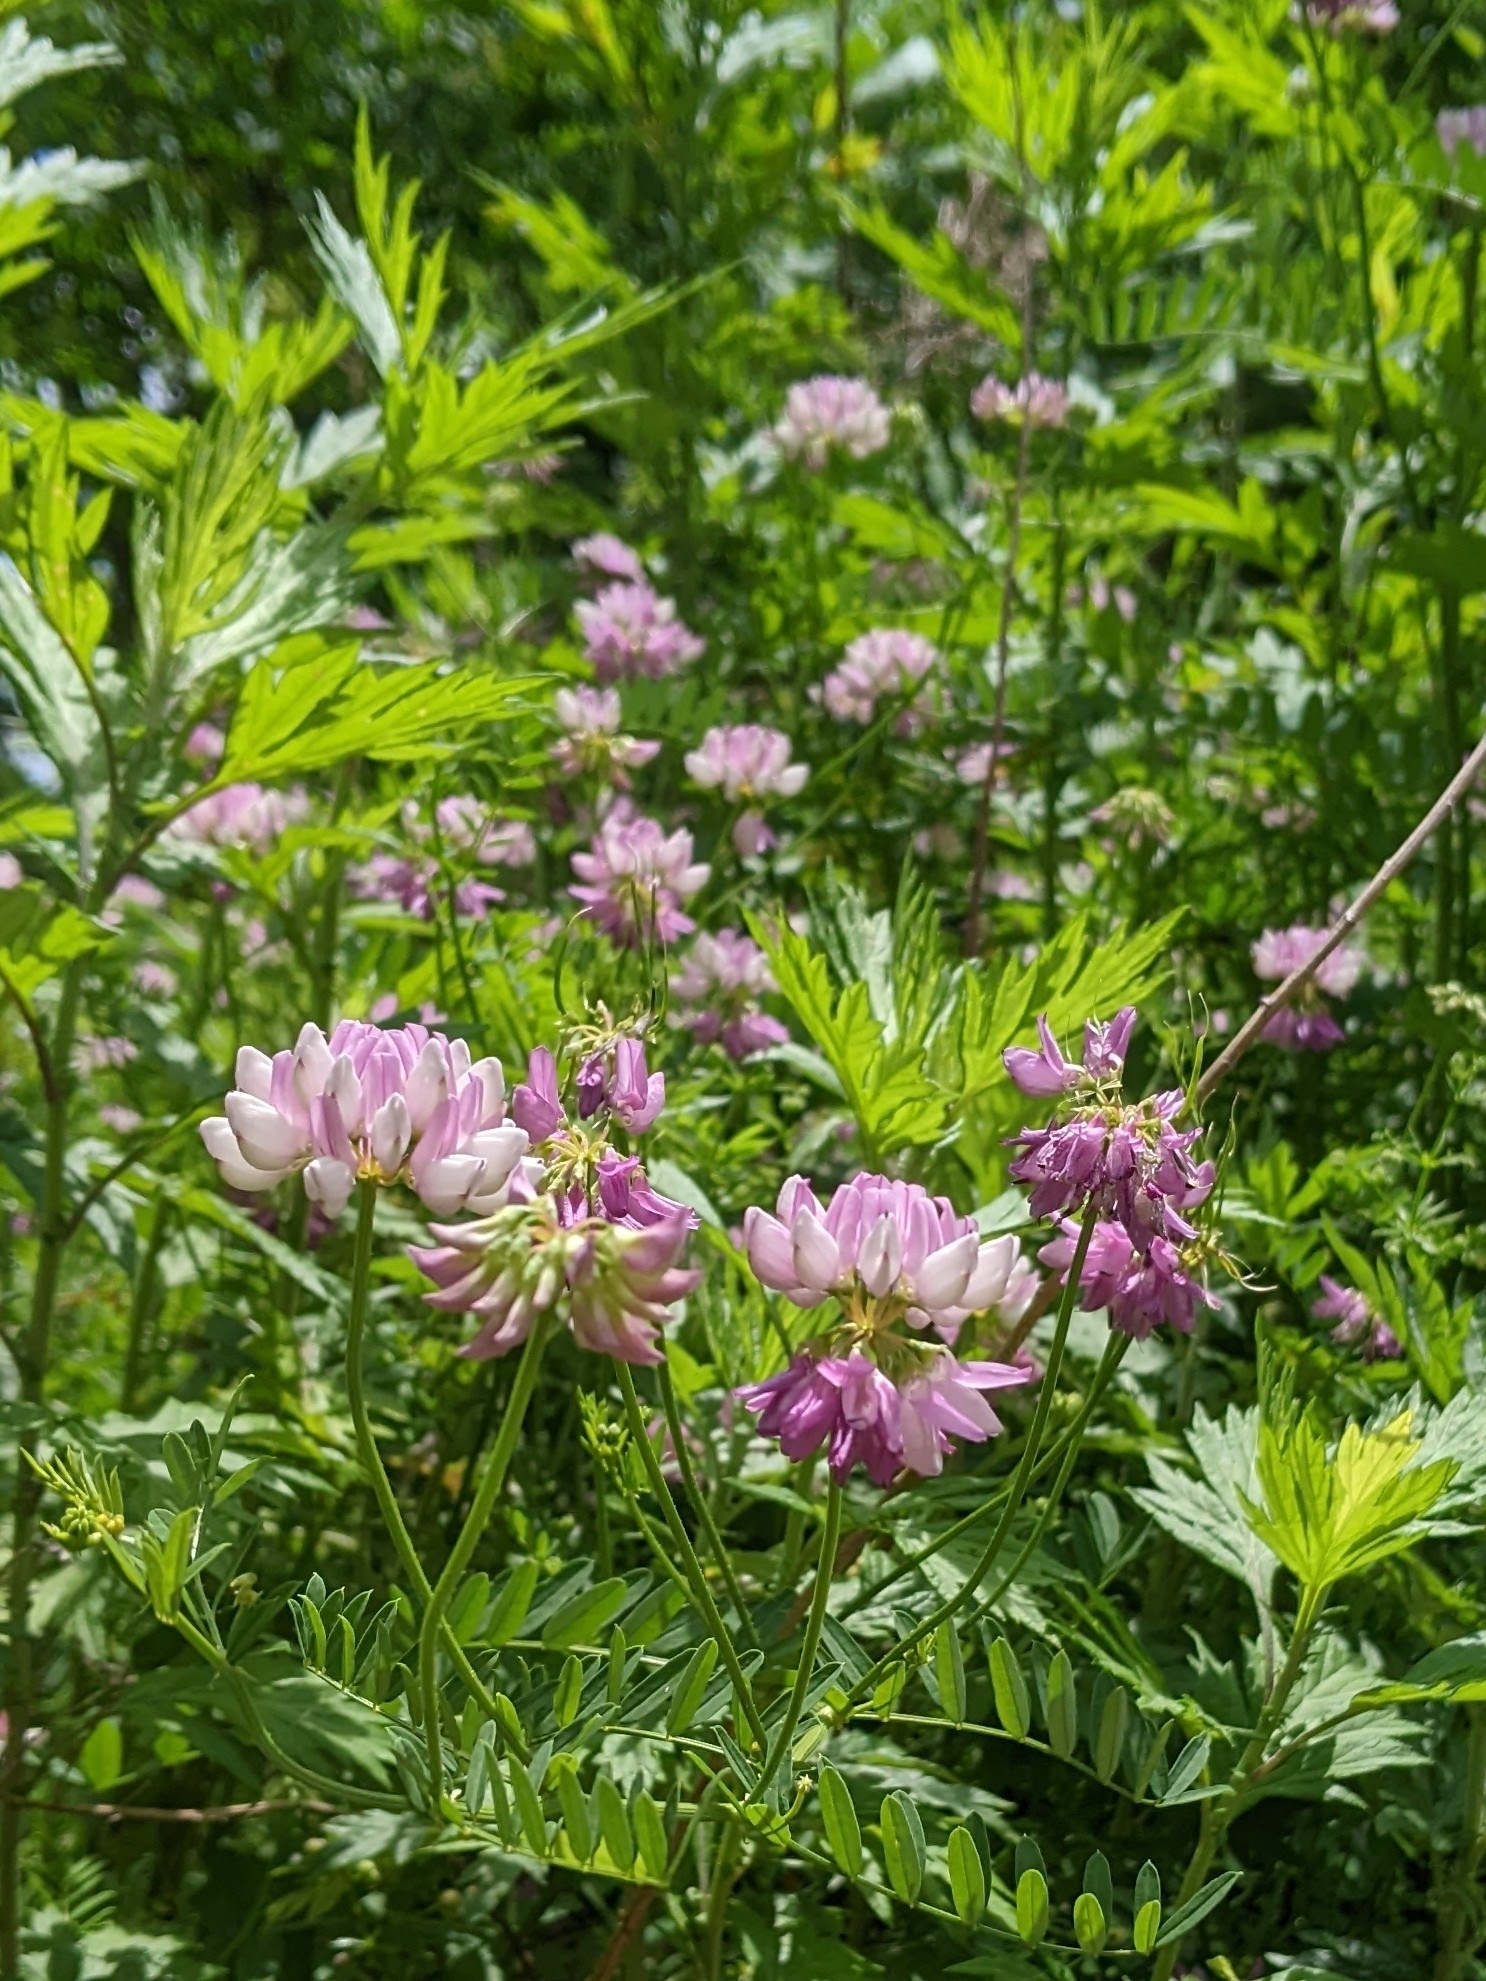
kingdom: Plantae
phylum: Tracheophyta
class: Magnoliopsida
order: Fabales
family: Fabaceae
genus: Coronilla
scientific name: Coronilla varia
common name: Crownvetch
